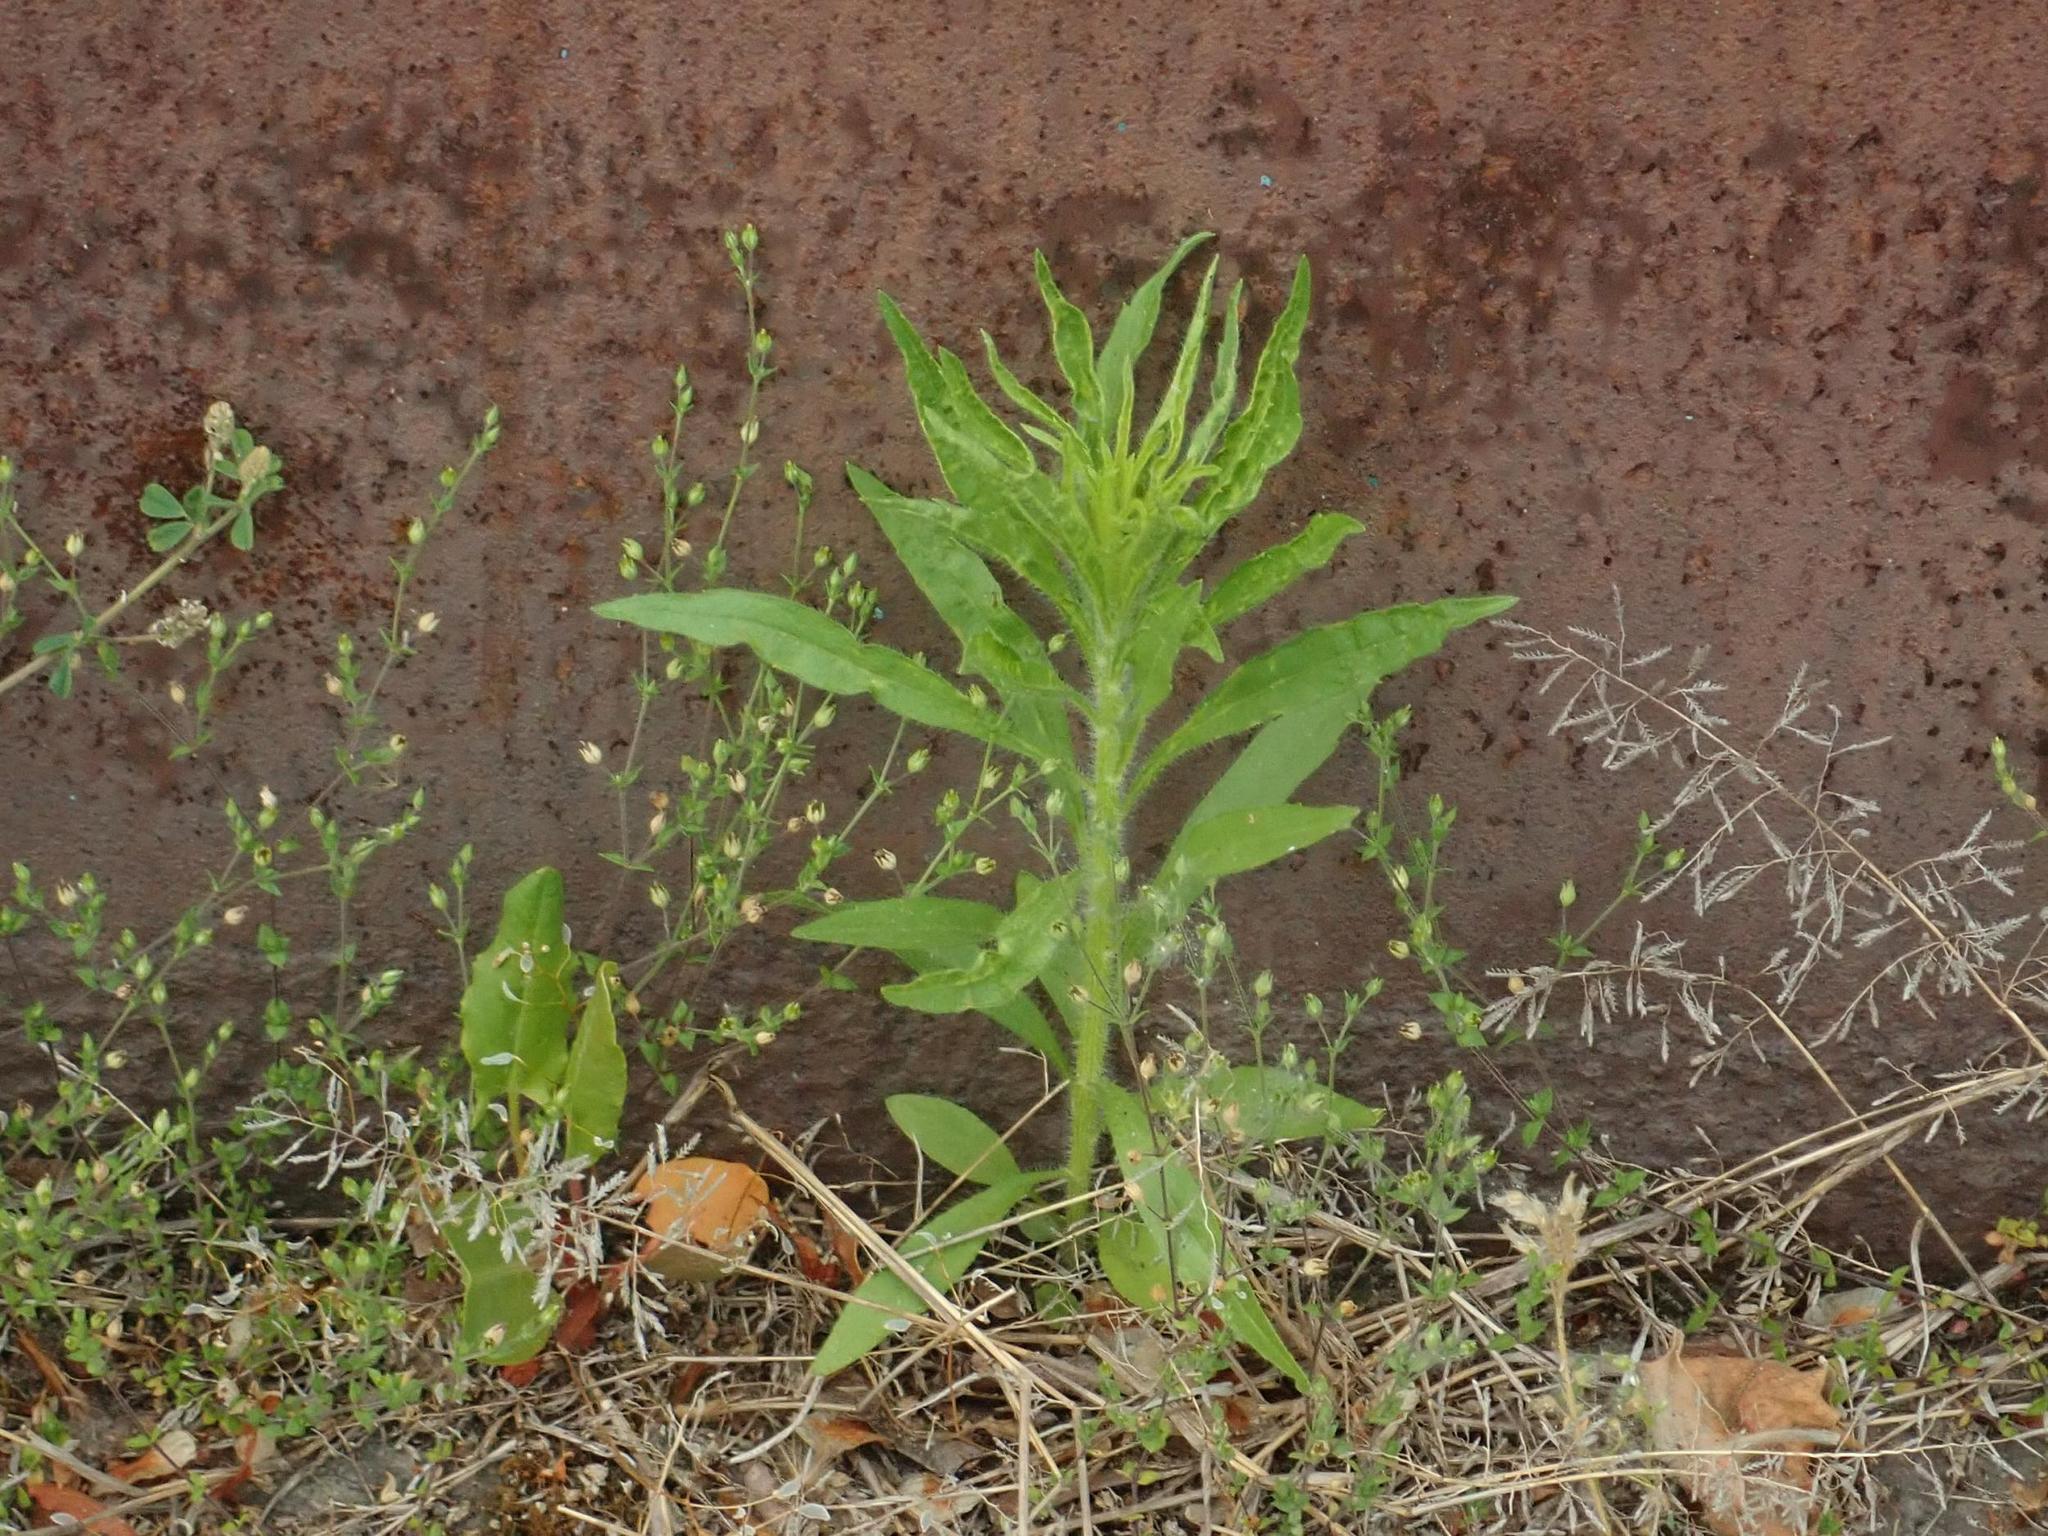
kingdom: Plantae
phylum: Tracheophyta
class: Magnoliopsida
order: Asterales
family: Asteraceae
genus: Erigeron
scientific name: Erigeron canadensis
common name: Canadian fleabane
